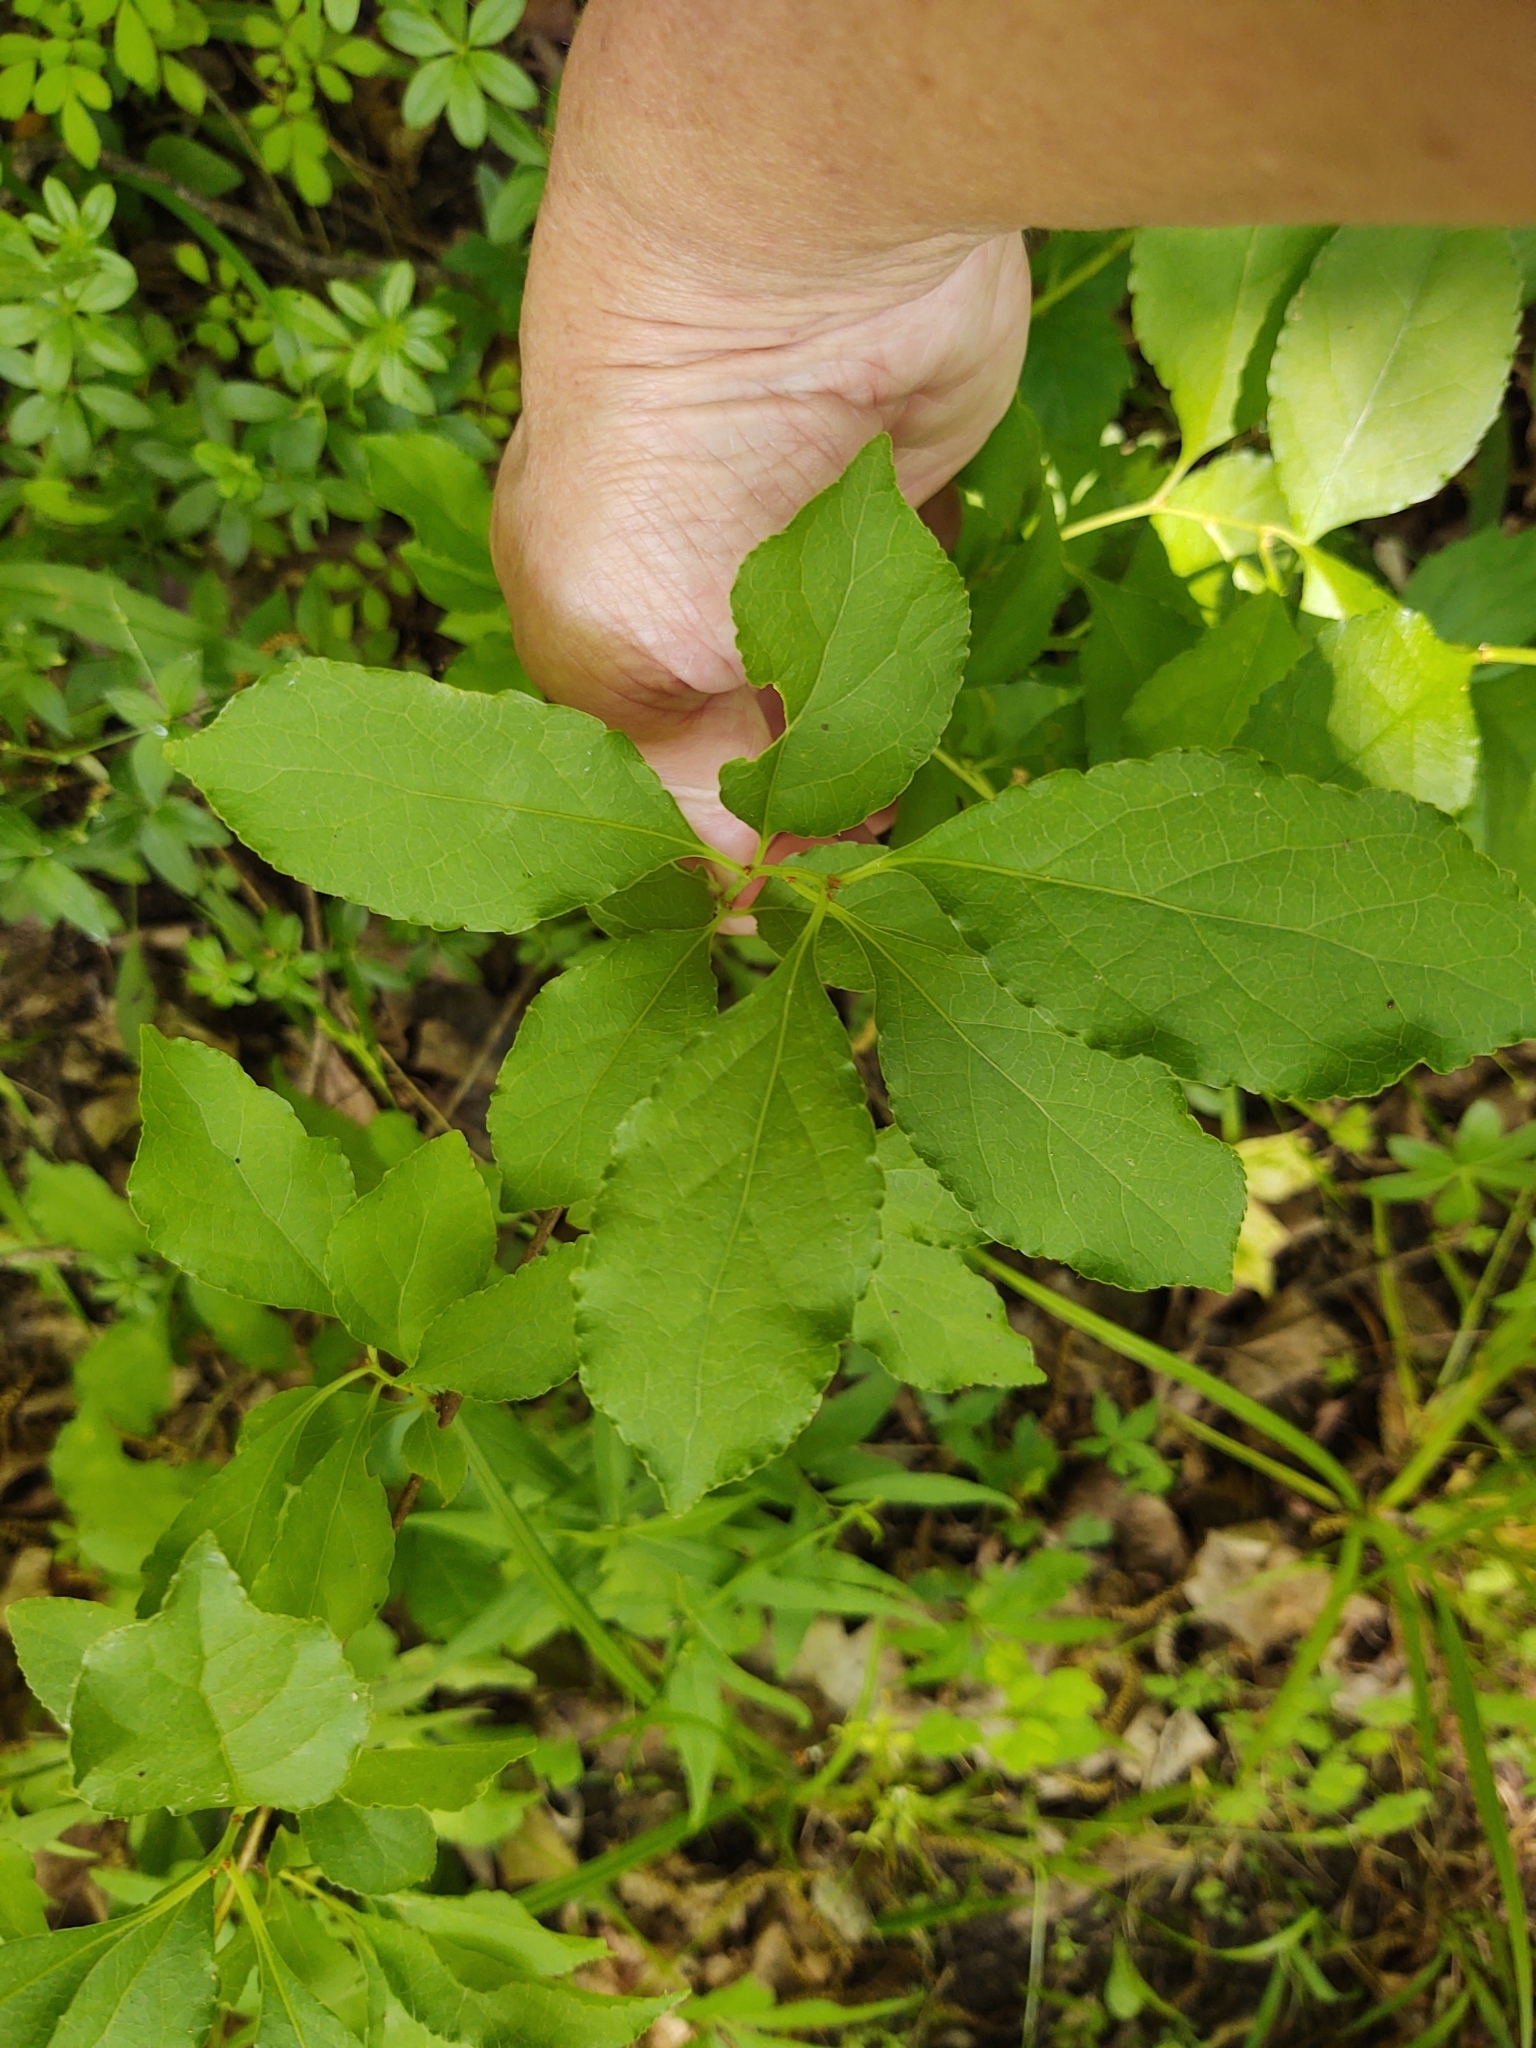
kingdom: Plantae
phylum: Tracheophyta
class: Magnoliopsida
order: Celastrales
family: Celastraceae
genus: Celastrus
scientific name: Celastrus orbiculatus
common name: Oriental bittersweet
